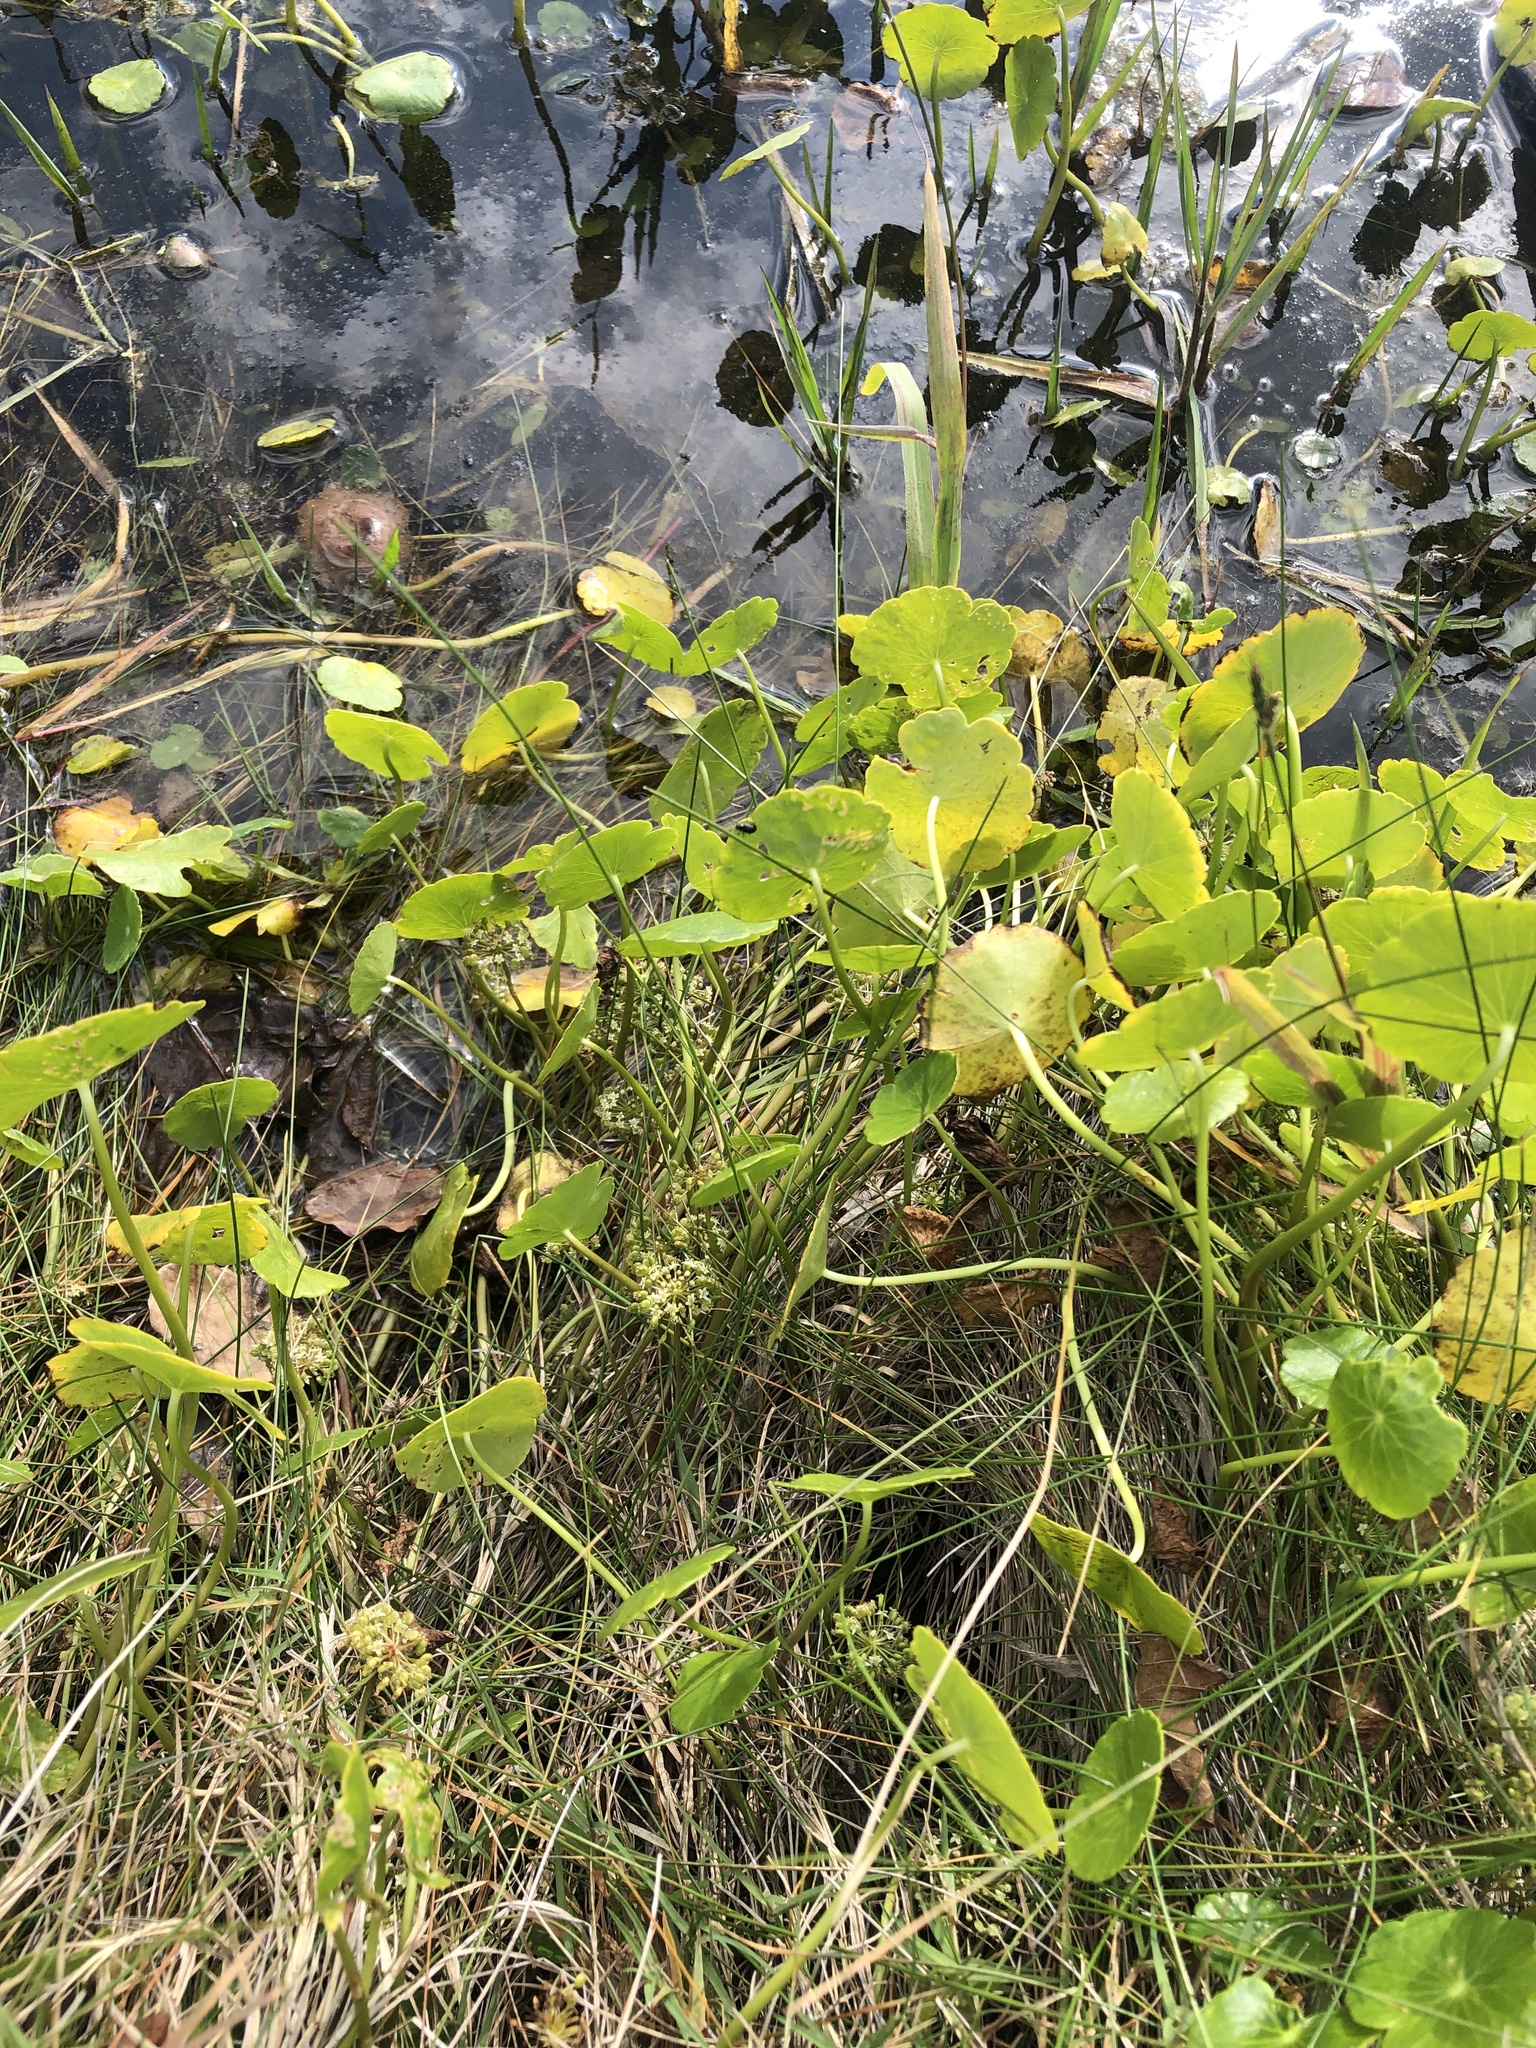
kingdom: Plantae
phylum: Tracheophyta
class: Magnoliopsida
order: Apiales
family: Araliaceae
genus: Hydrocotyle
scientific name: Hydrocotyle umbellata
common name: Water pennywort
